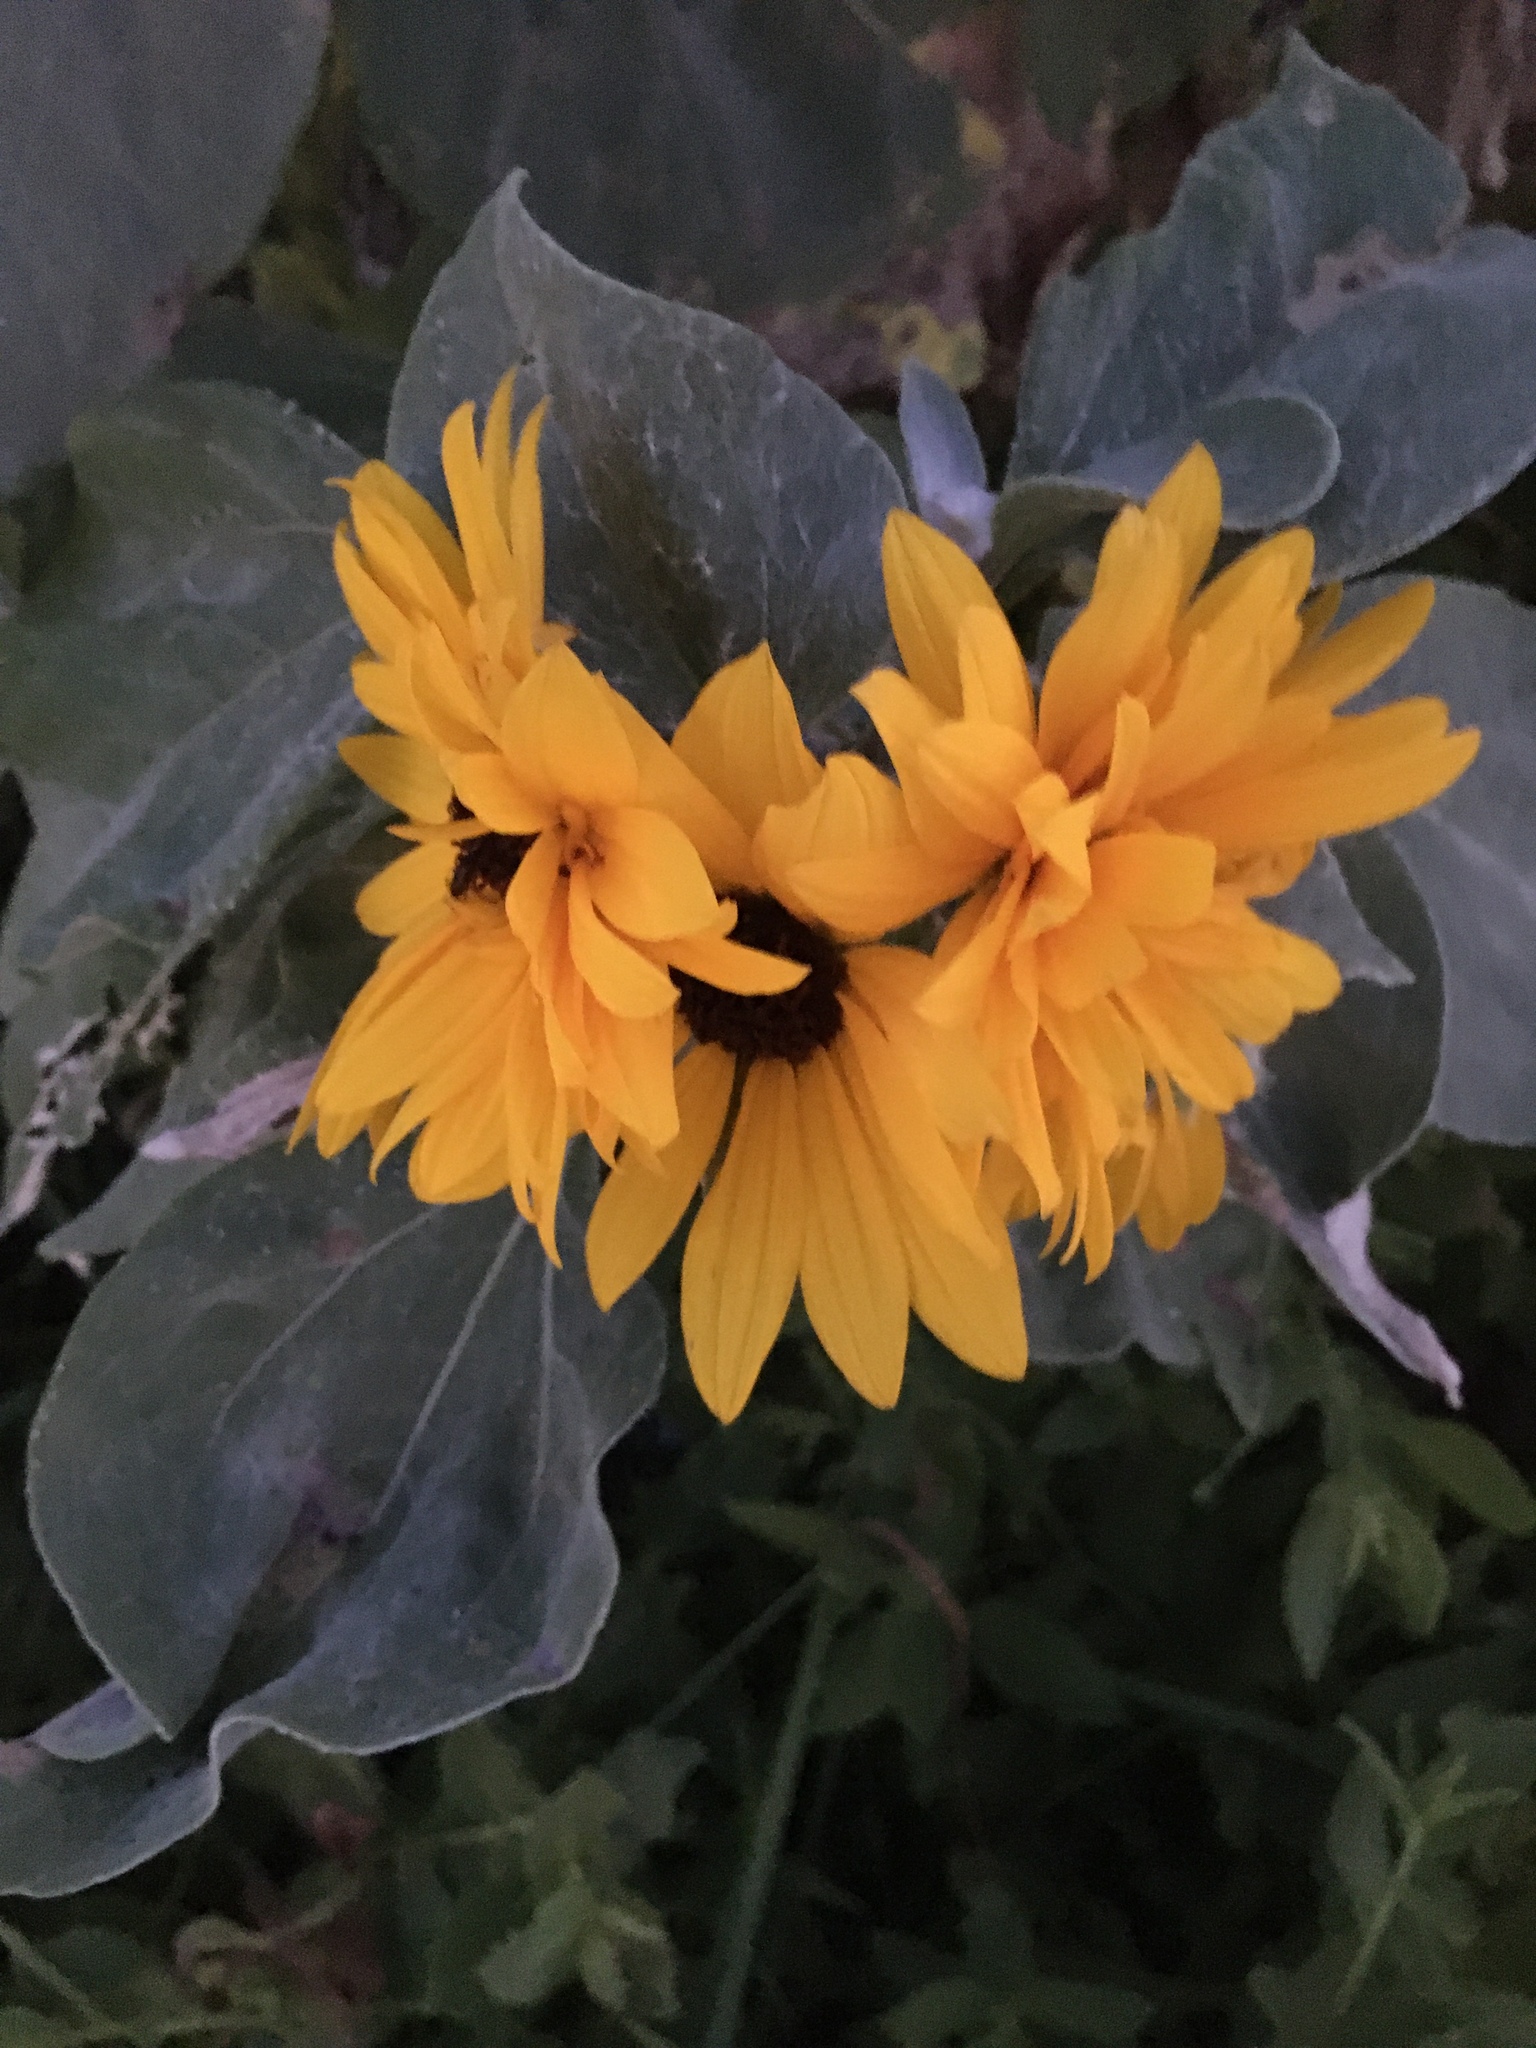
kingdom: Plantae
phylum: Tracheophyta
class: Magnoliopsida
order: Asterales
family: Asteraceae
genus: Helianthus
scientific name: Helianthus argophyllus
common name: Silverleaf sunflower
